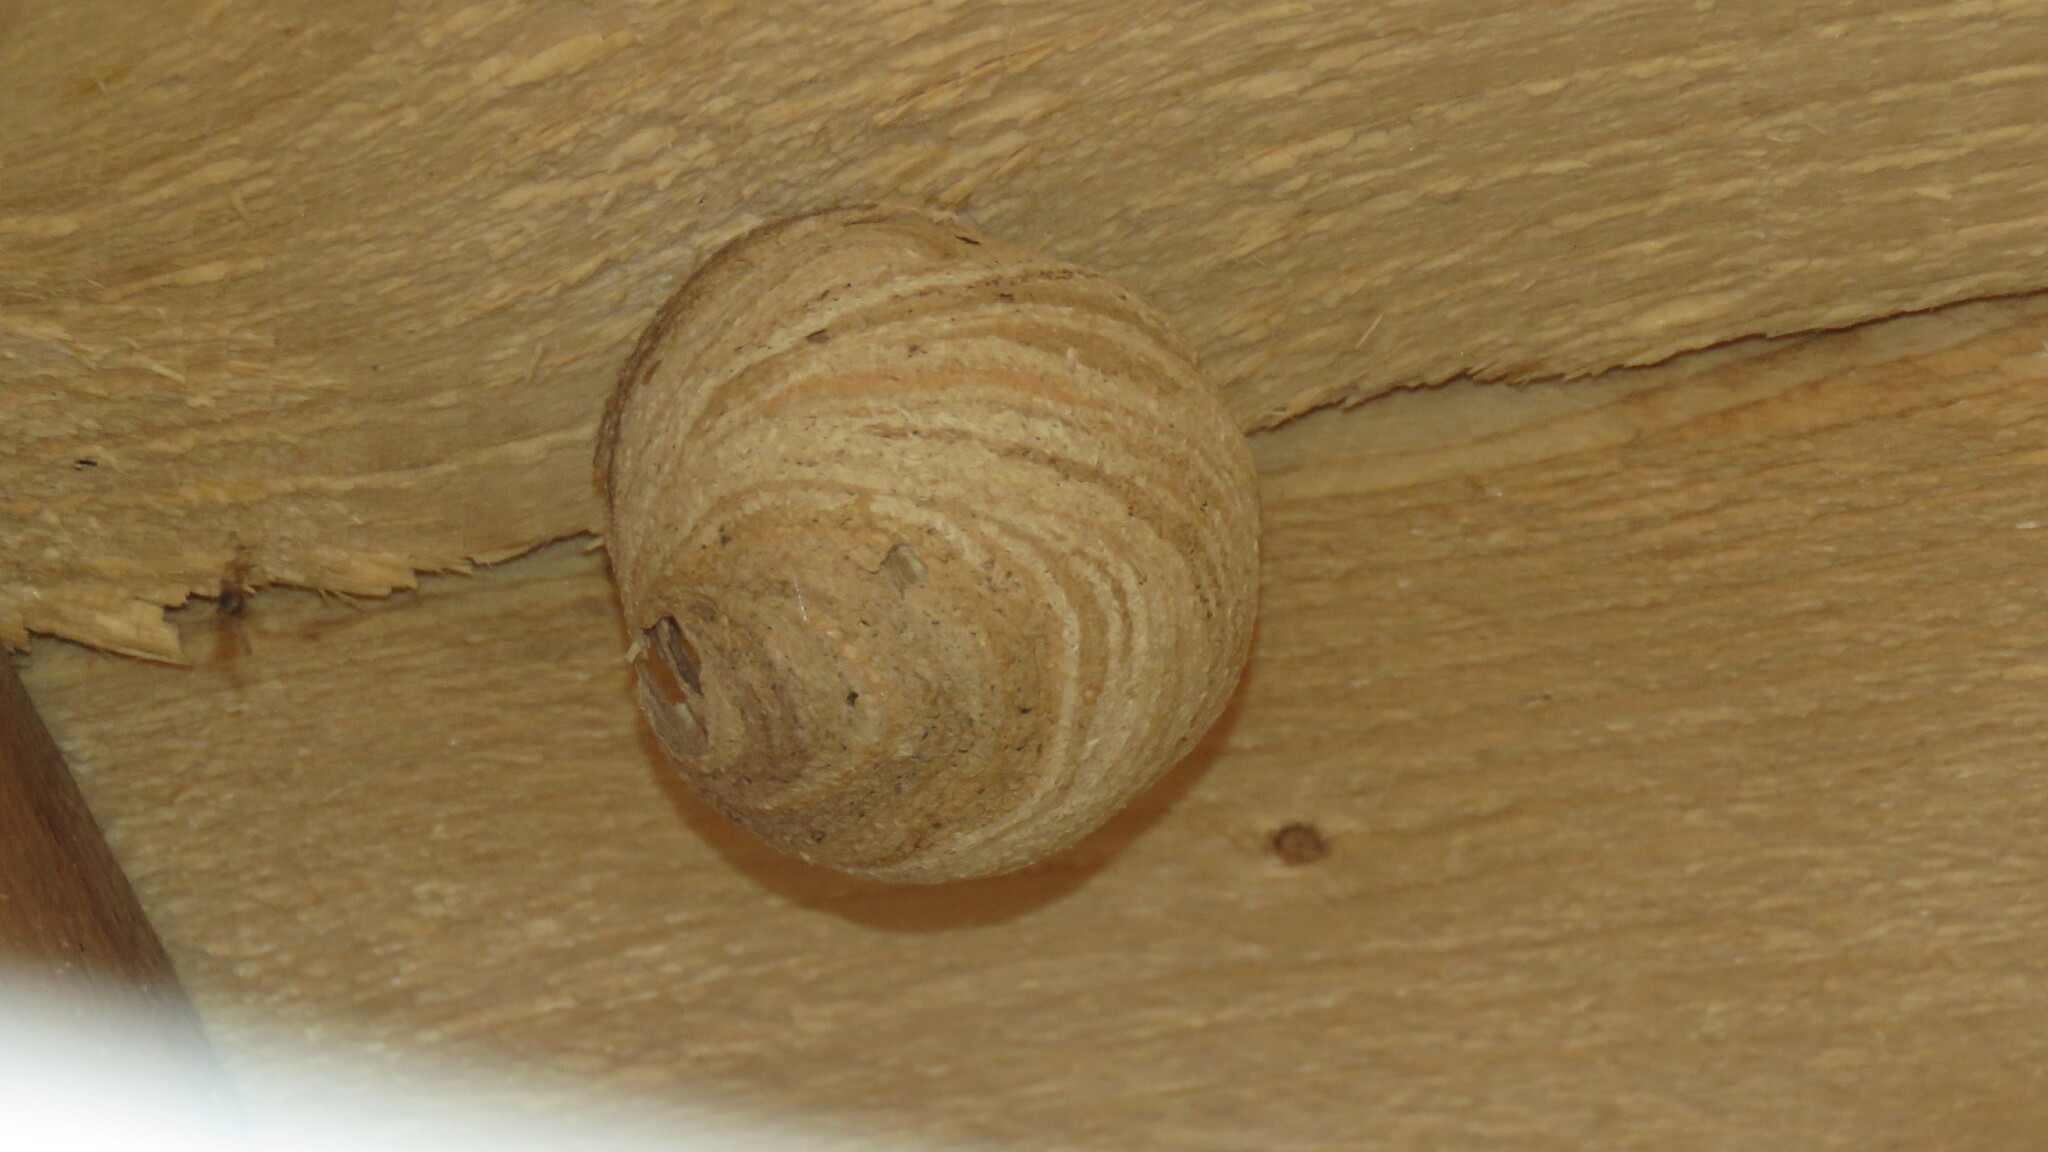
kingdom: Animalia
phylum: Arthropoda
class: Insecta
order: Hymenoptera
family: Vespidae
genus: Dolichovespula
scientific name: Dolichovespula
